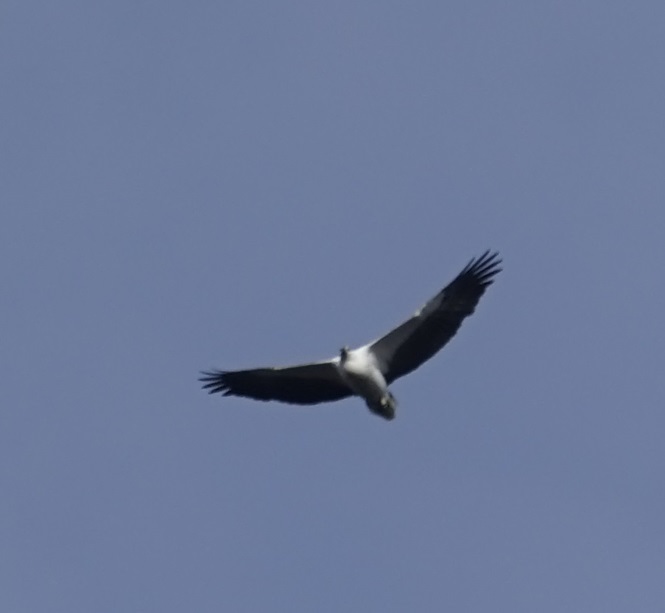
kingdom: Animalia
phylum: Chordata
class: Aves
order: Accipitriformes
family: Accipitridae
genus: Haliaeetus
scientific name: Haliaeetus leucogaster
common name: White-bellied sea eagle
